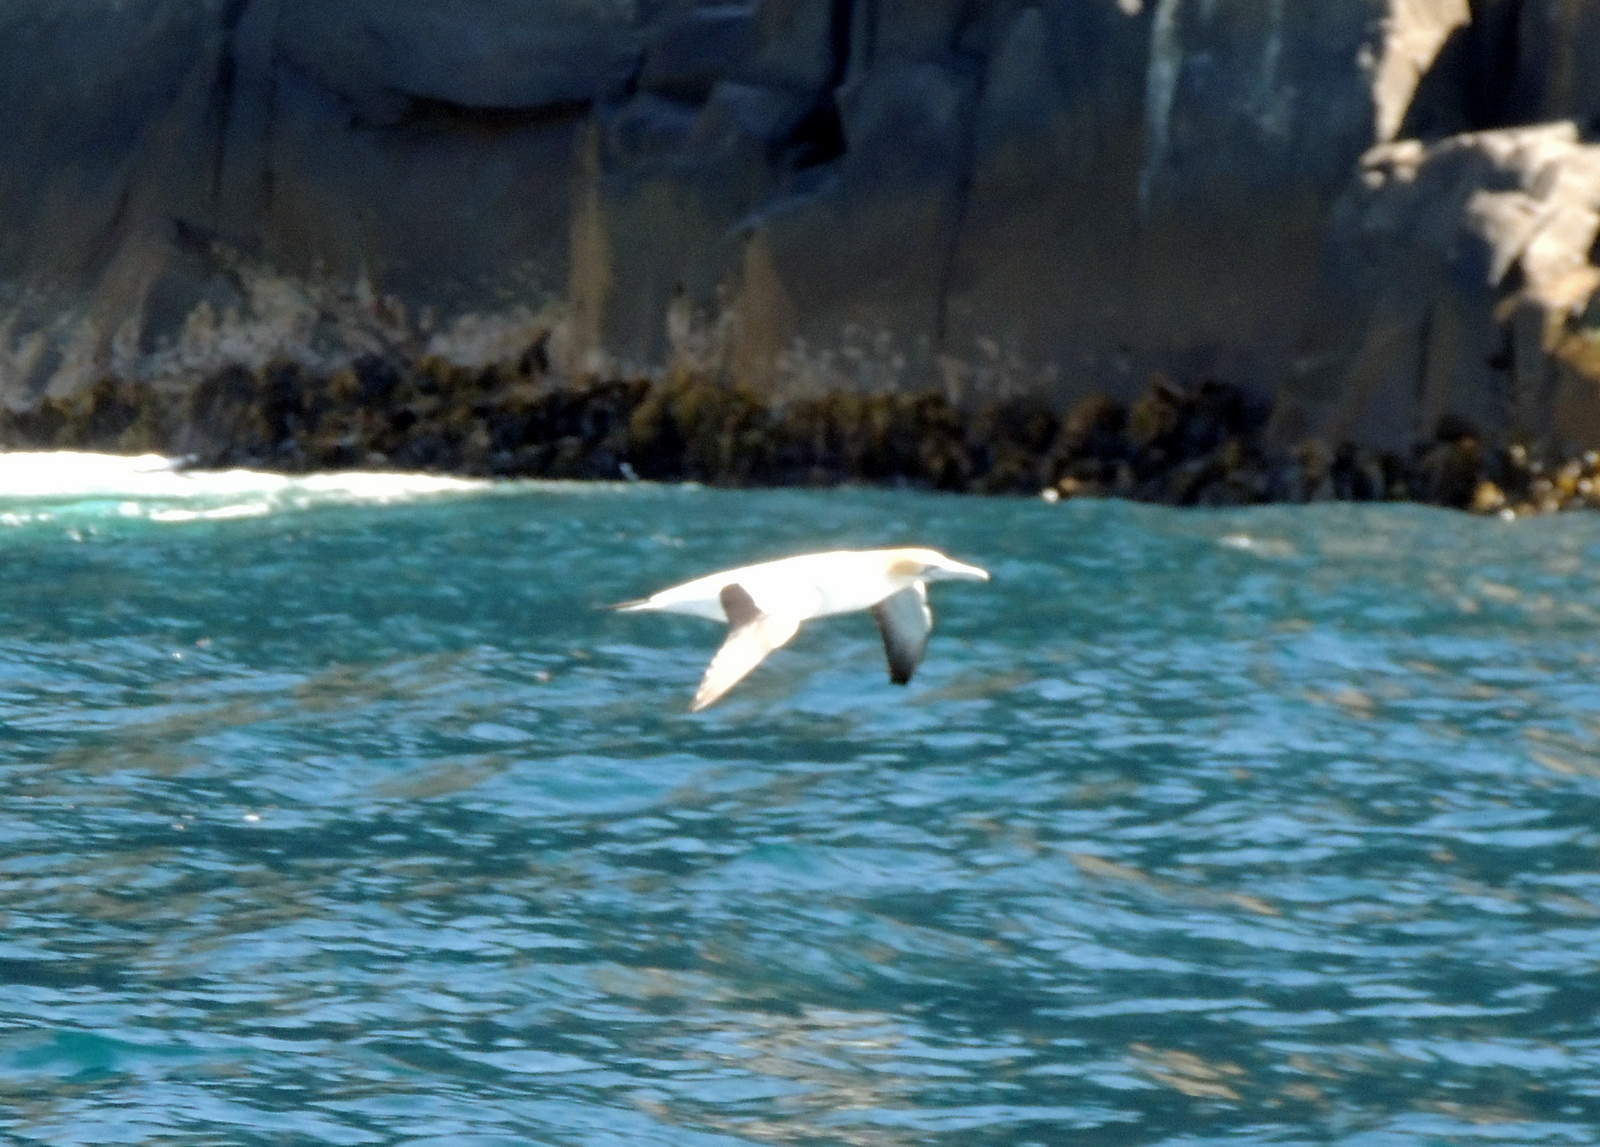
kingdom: Animalia
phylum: Chordata
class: Aves
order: Suliformes
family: Sulidae
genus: Morus
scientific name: Morus serrator
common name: Australasian gannet
